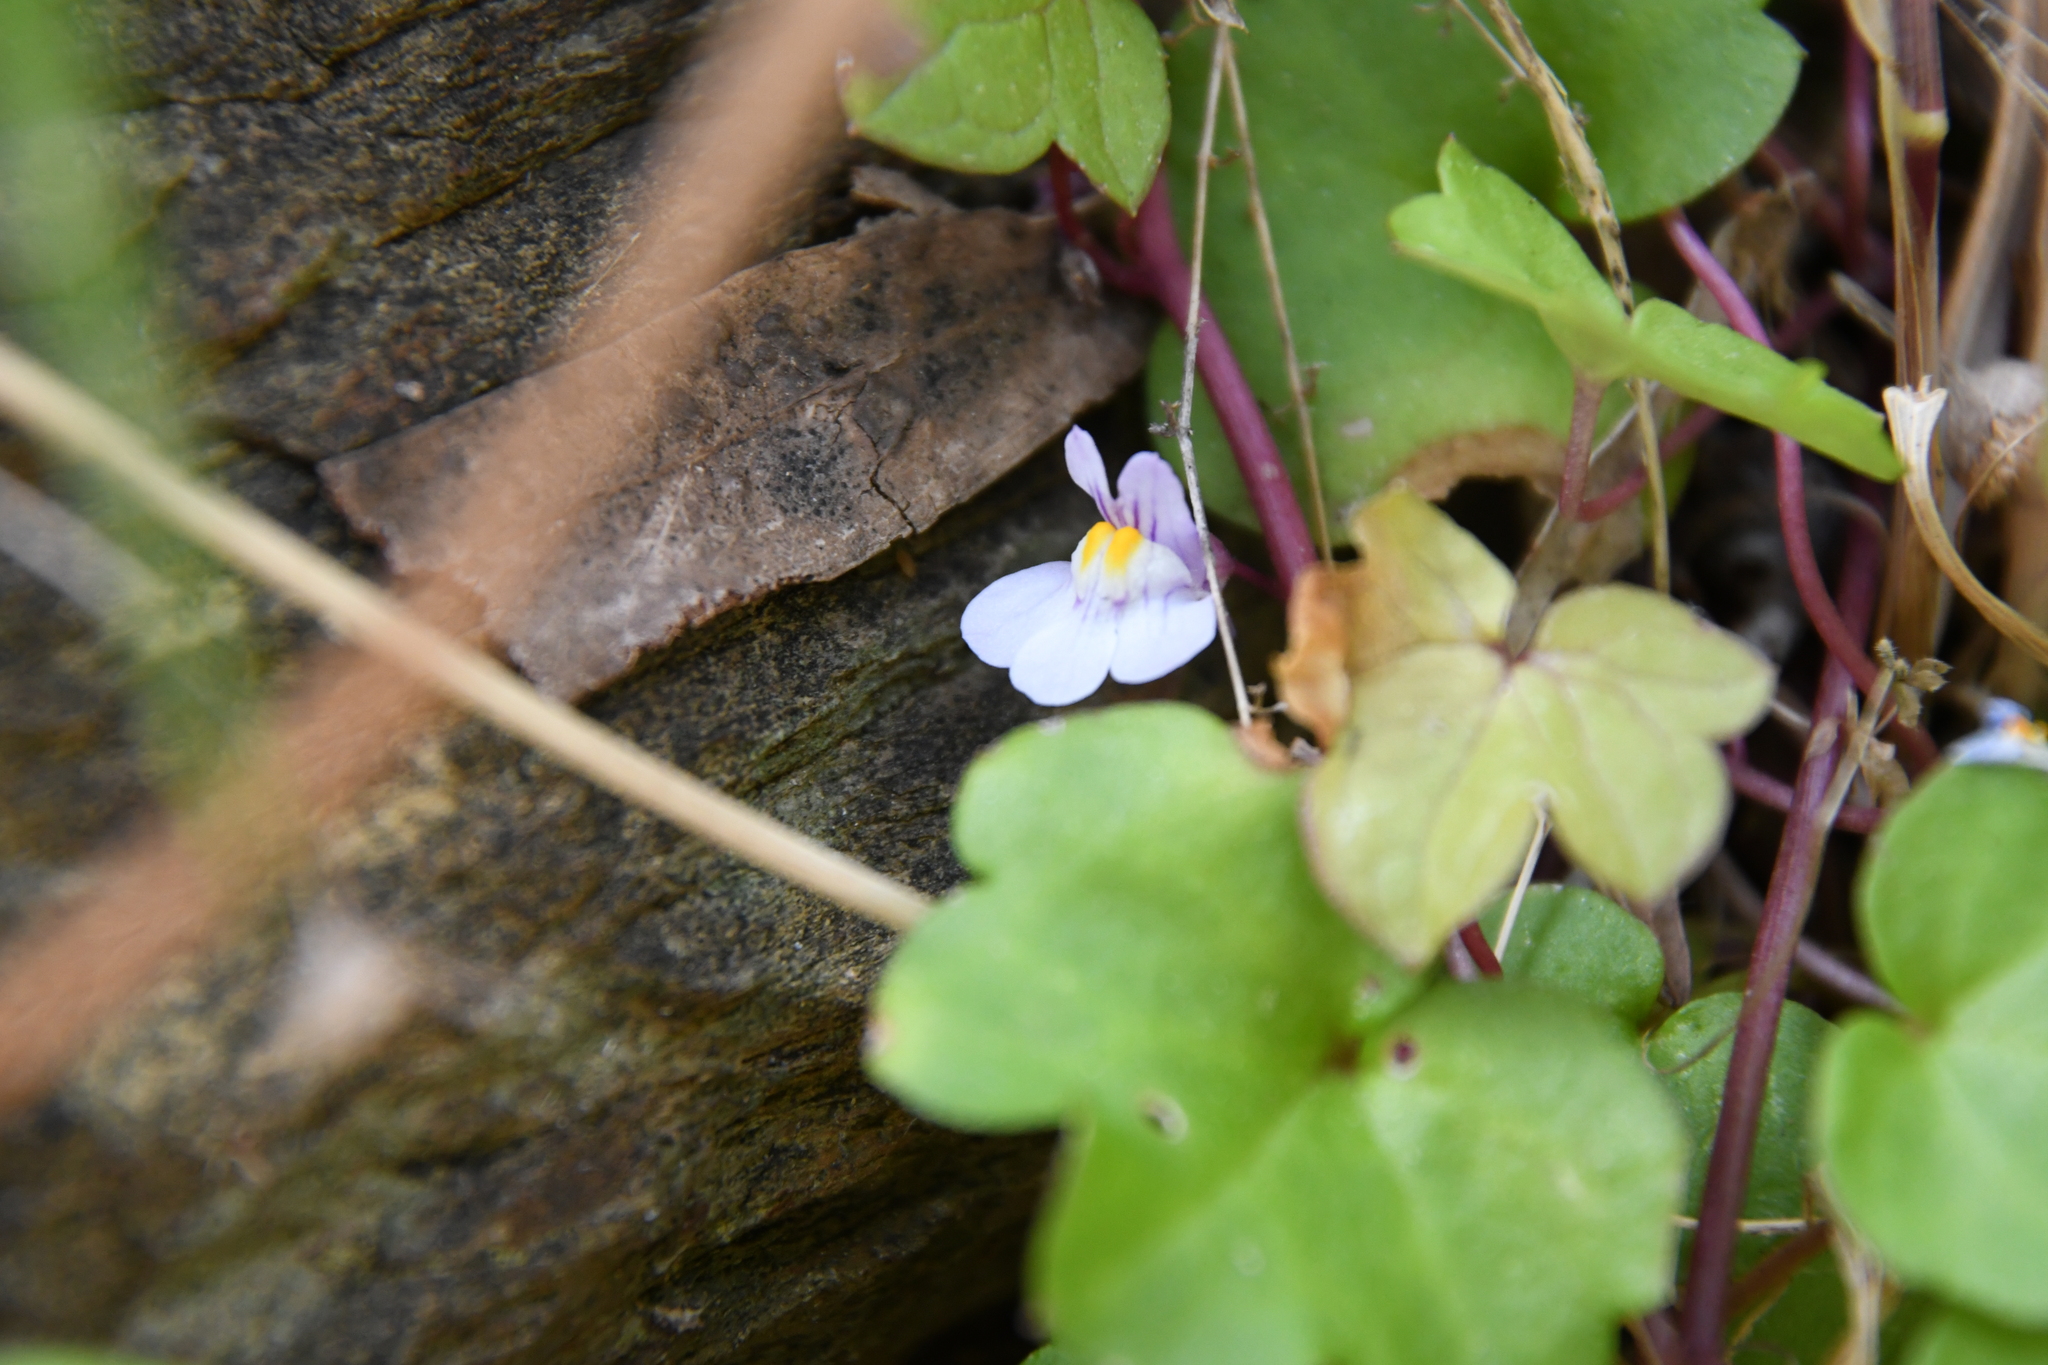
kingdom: Plantae
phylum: Tracheophyta
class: Magnoliopsida
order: Lamiales
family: Plantaginaceae
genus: Cymbalaria
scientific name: Cymbalaria muralis
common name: Ivy-leaved toadflax
